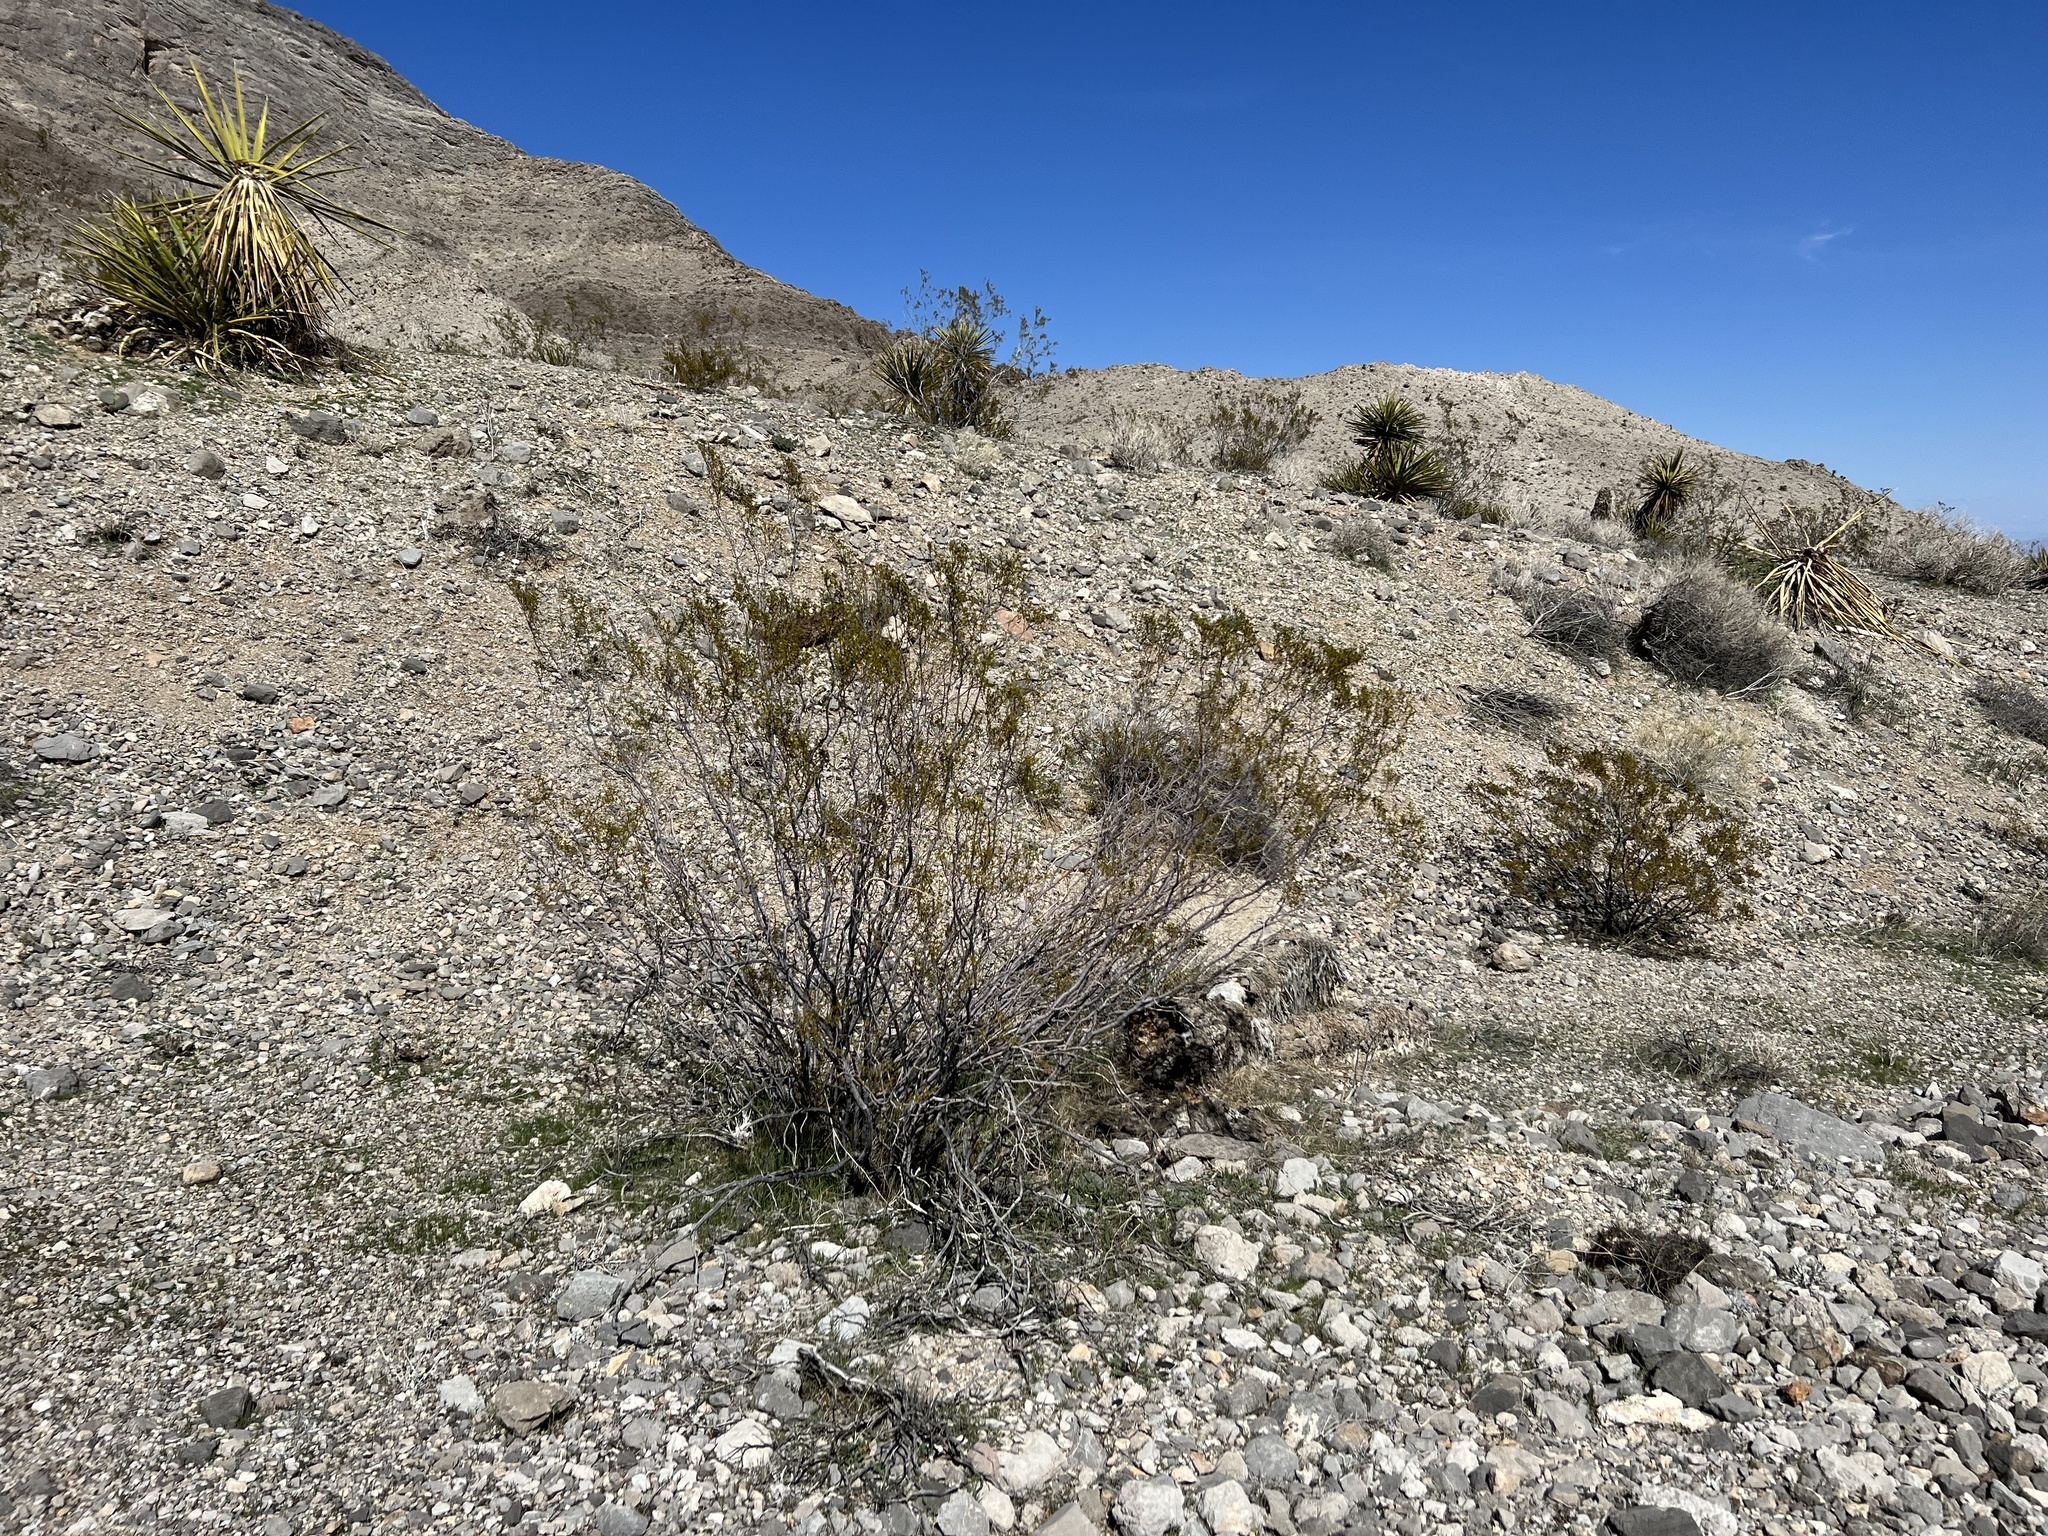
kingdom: Plantae
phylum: Tracheophyta
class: Magnoliopsida
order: Zygophyllales
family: Zygophyllaceae
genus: Larrea
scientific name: Larrea tridentata
